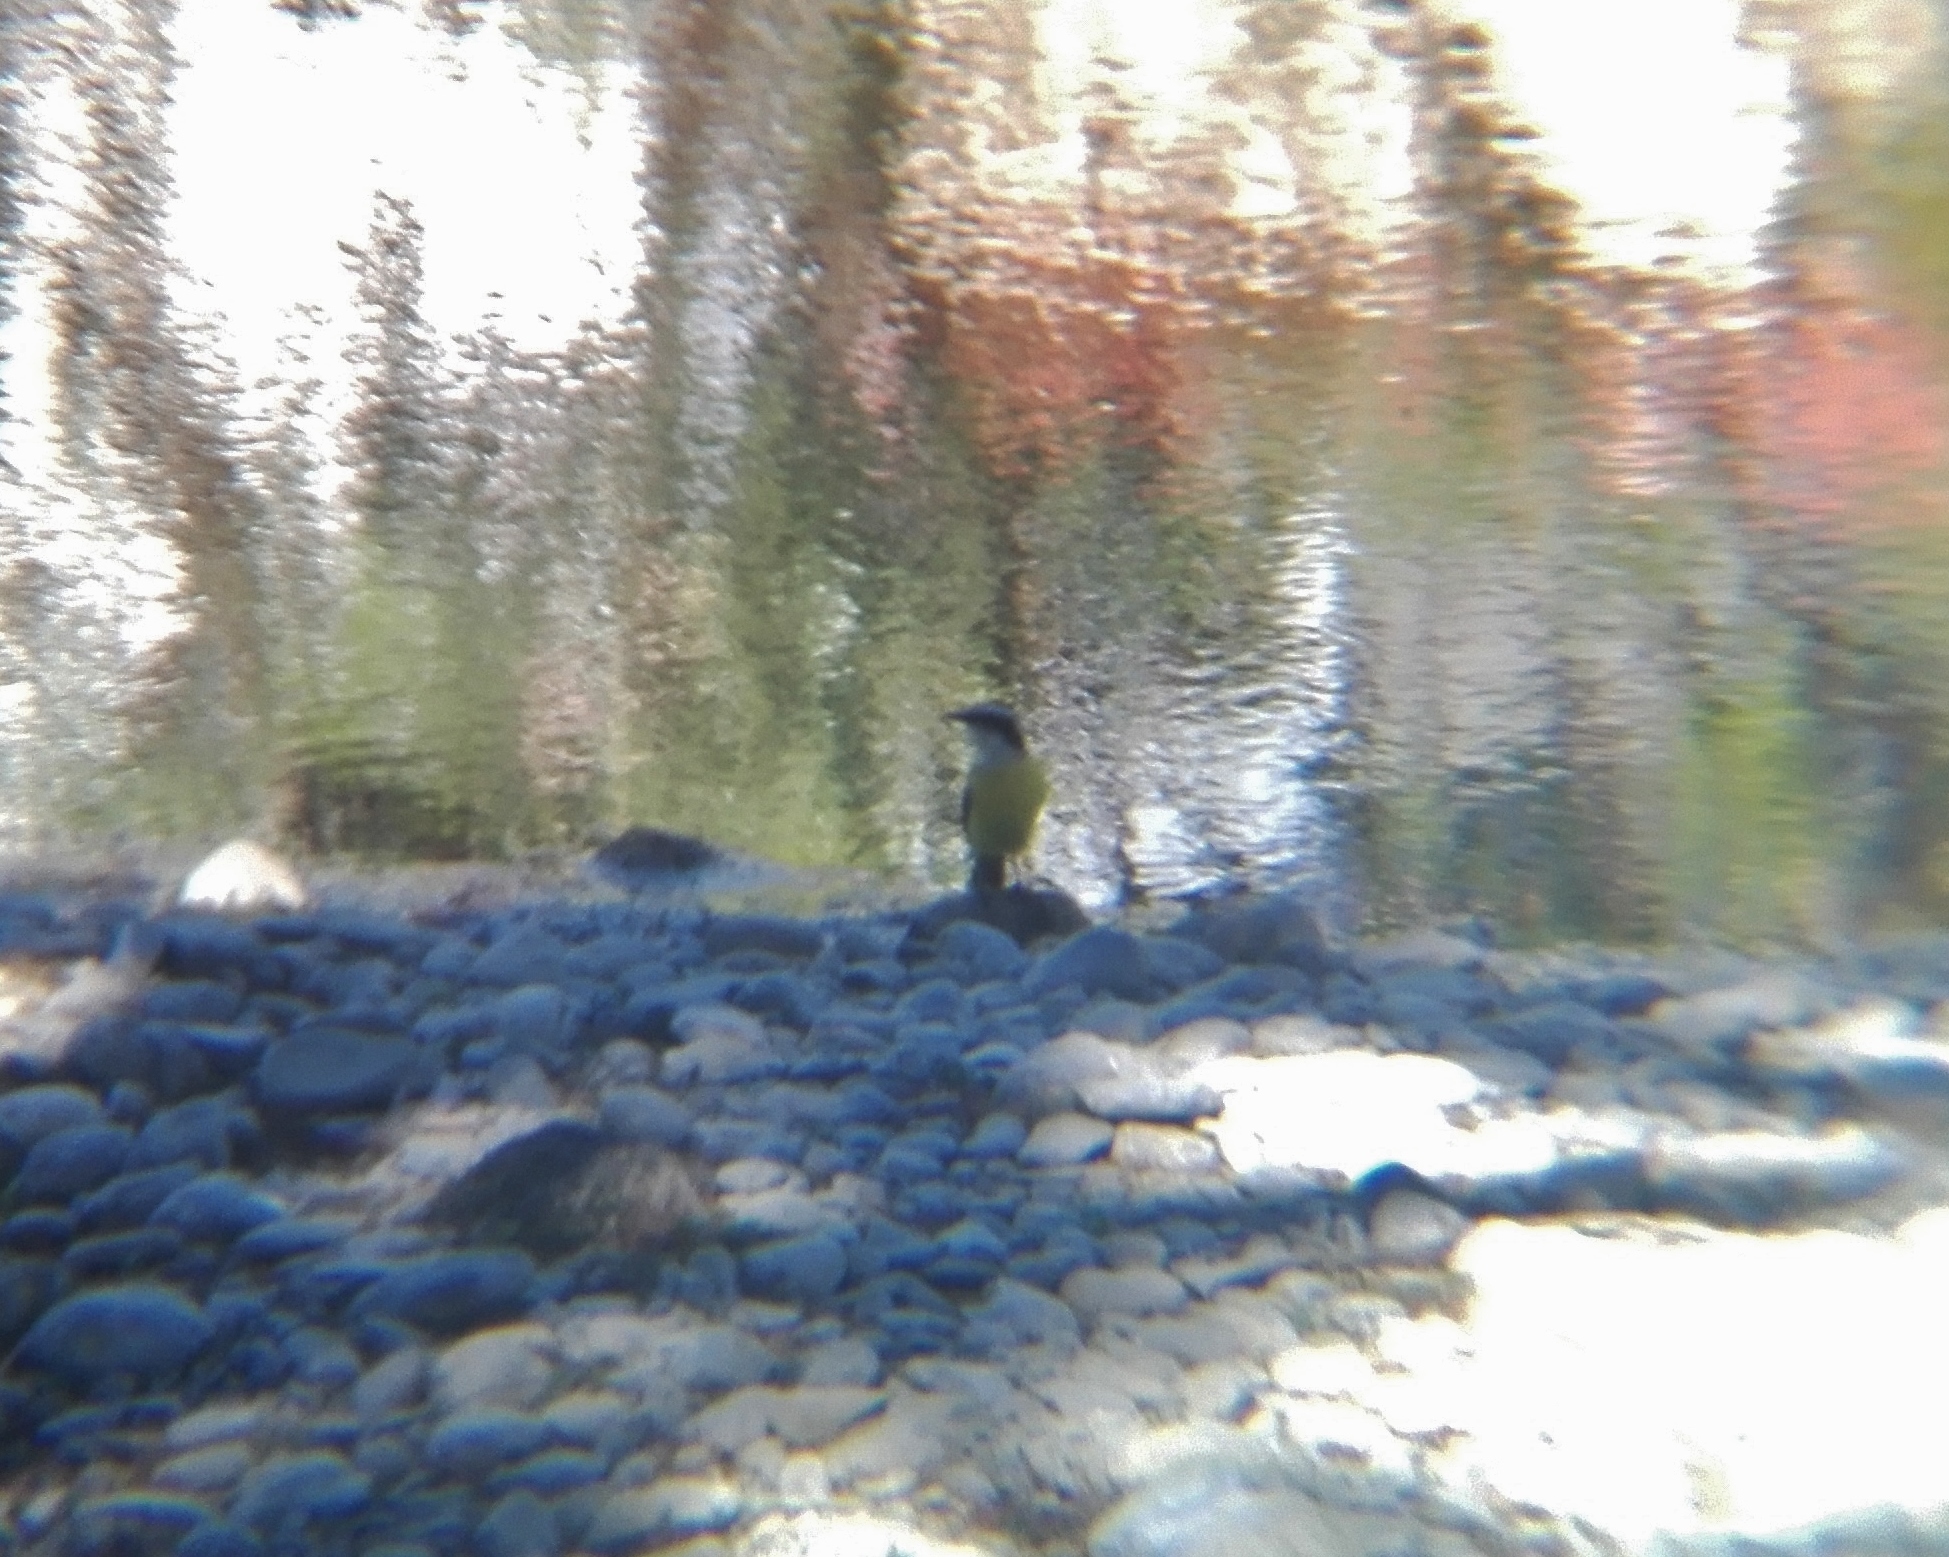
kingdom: Animalia
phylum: Chordata
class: Aves
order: Passeriformes
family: Tyrannidae
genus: Pitangus
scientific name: Pitangus sulphuratus
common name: Great kiskadee
